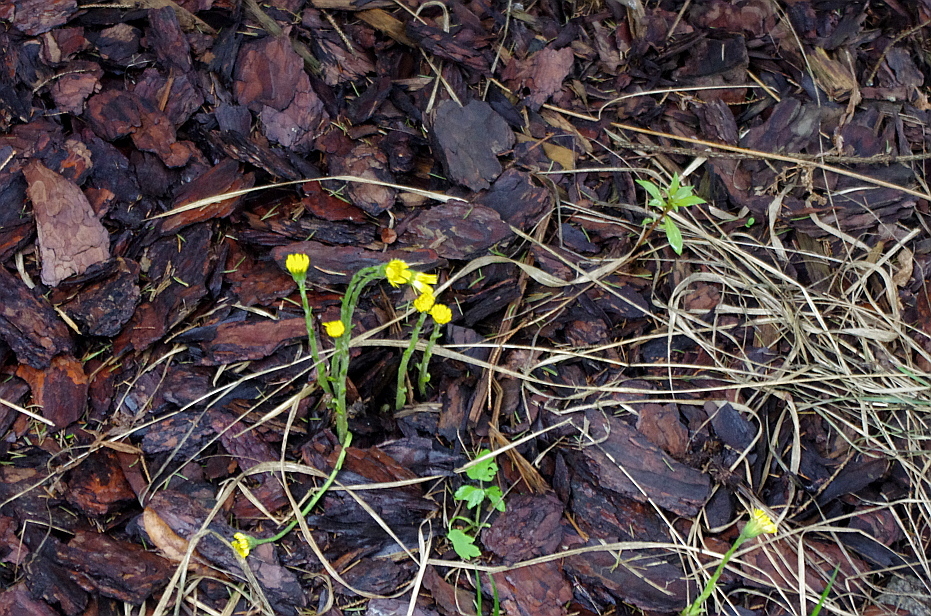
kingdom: Plantae
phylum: Tracheophyta
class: Magnoliopsida
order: Asterales
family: Asteraceae
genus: Tussilago
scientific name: Tussilago farfara
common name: Coltsfoot
